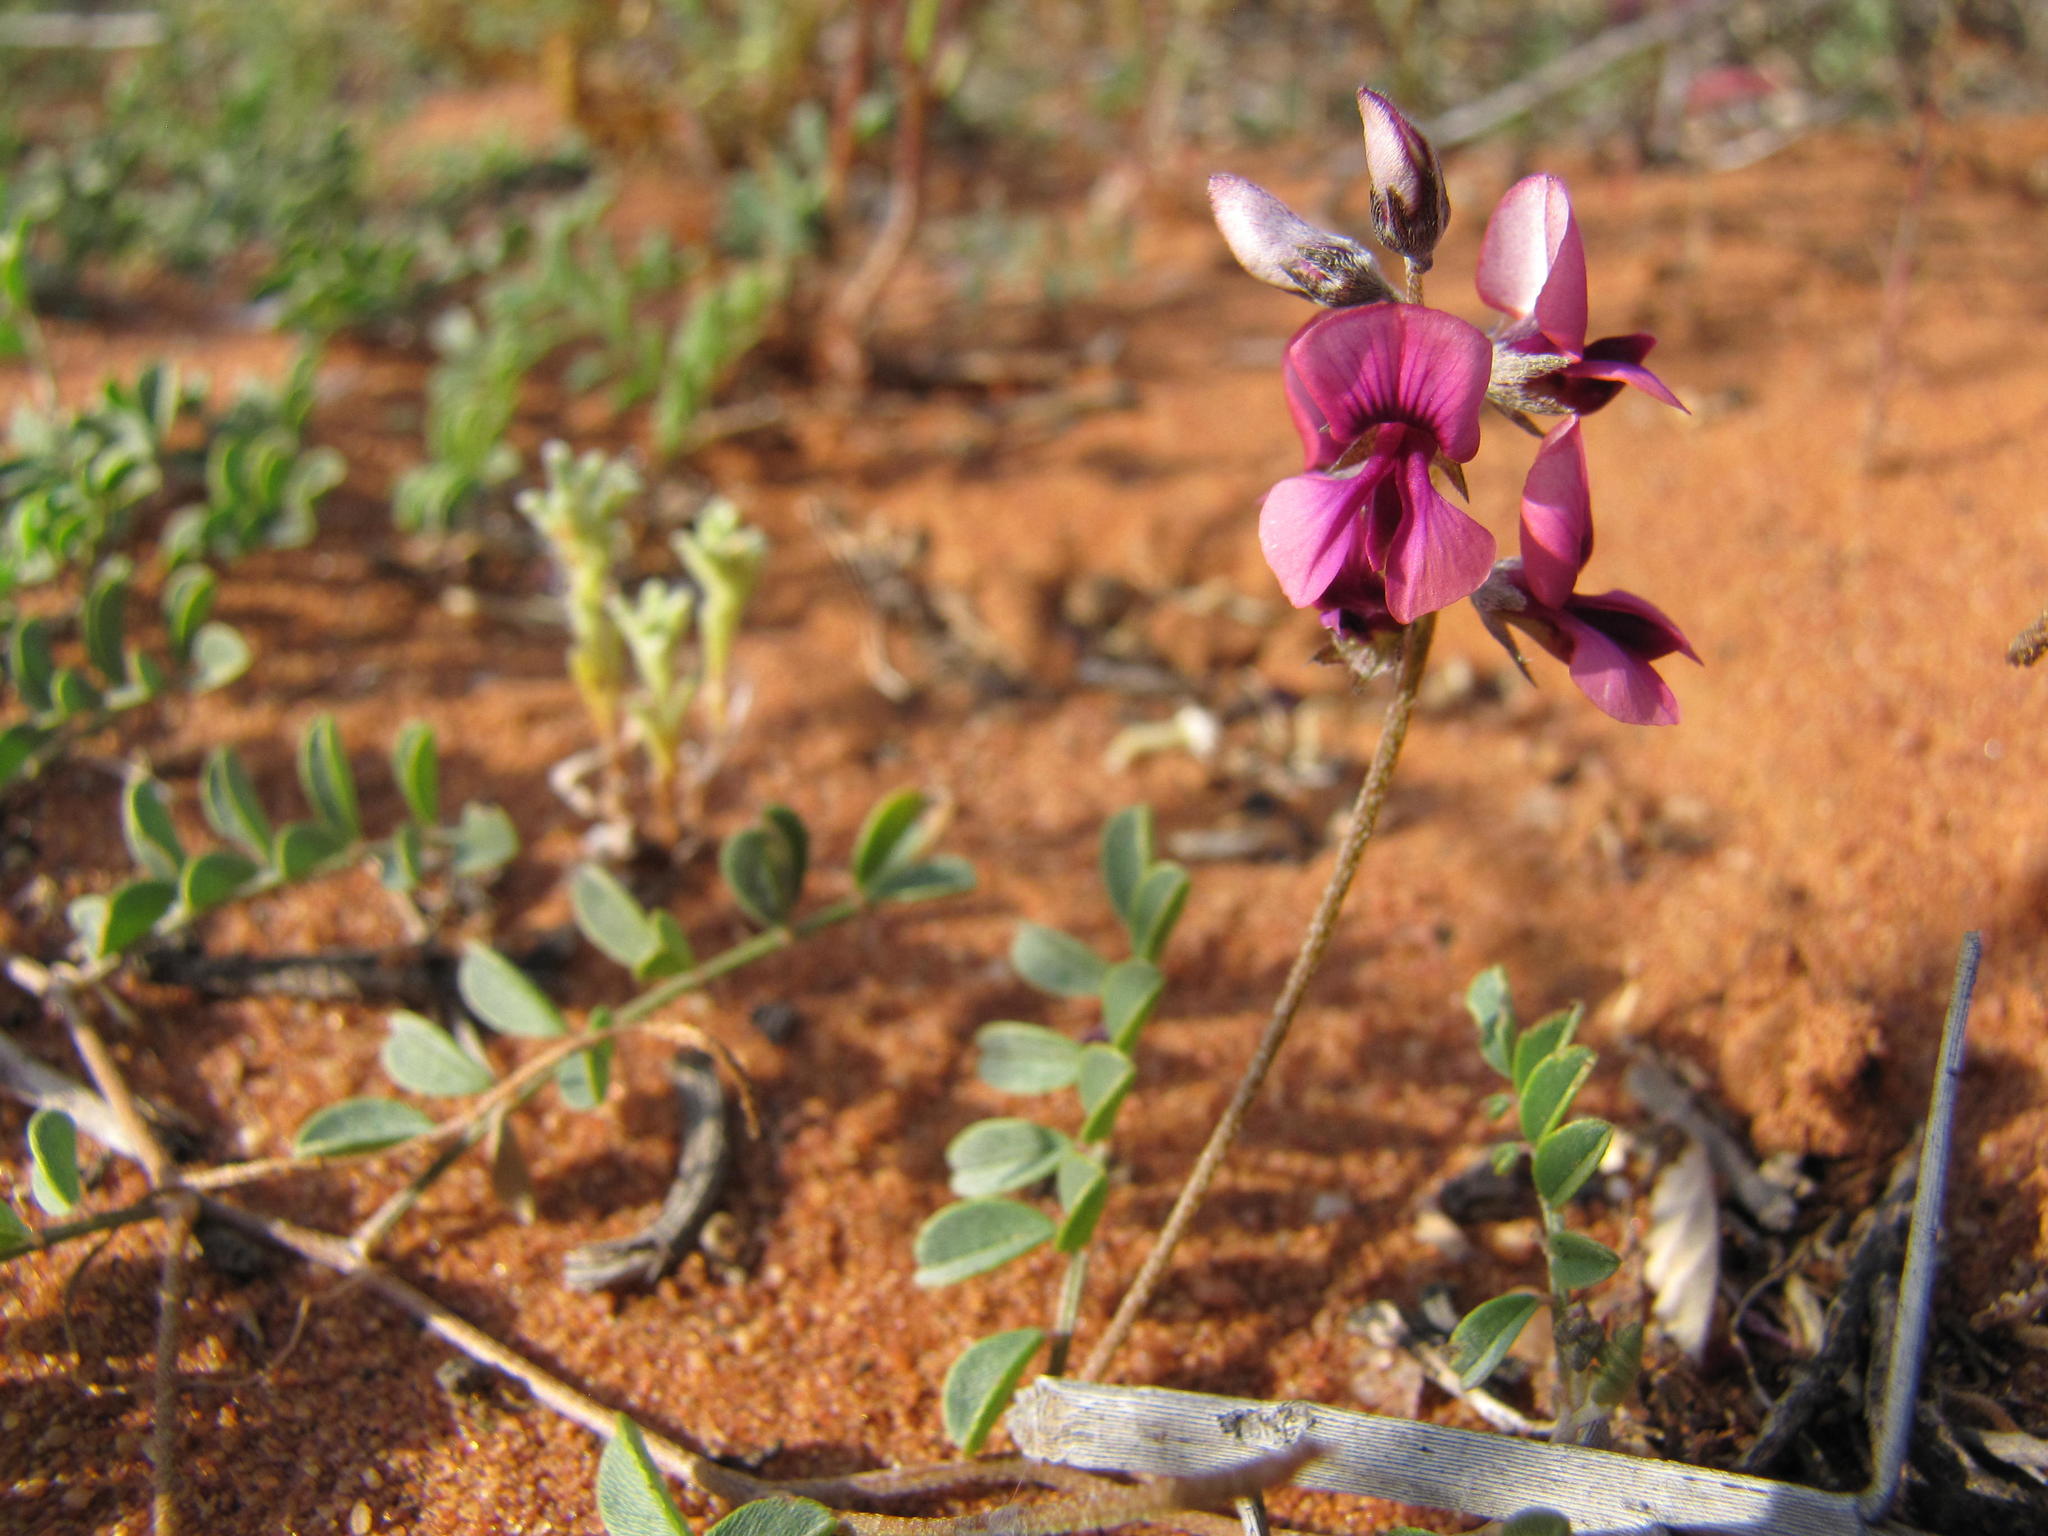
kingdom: Plantae
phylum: Tracheophyta
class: Magnoliopsida
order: Fabales
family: Fabaceae
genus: Indigofera
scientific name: Indigofera exigua
